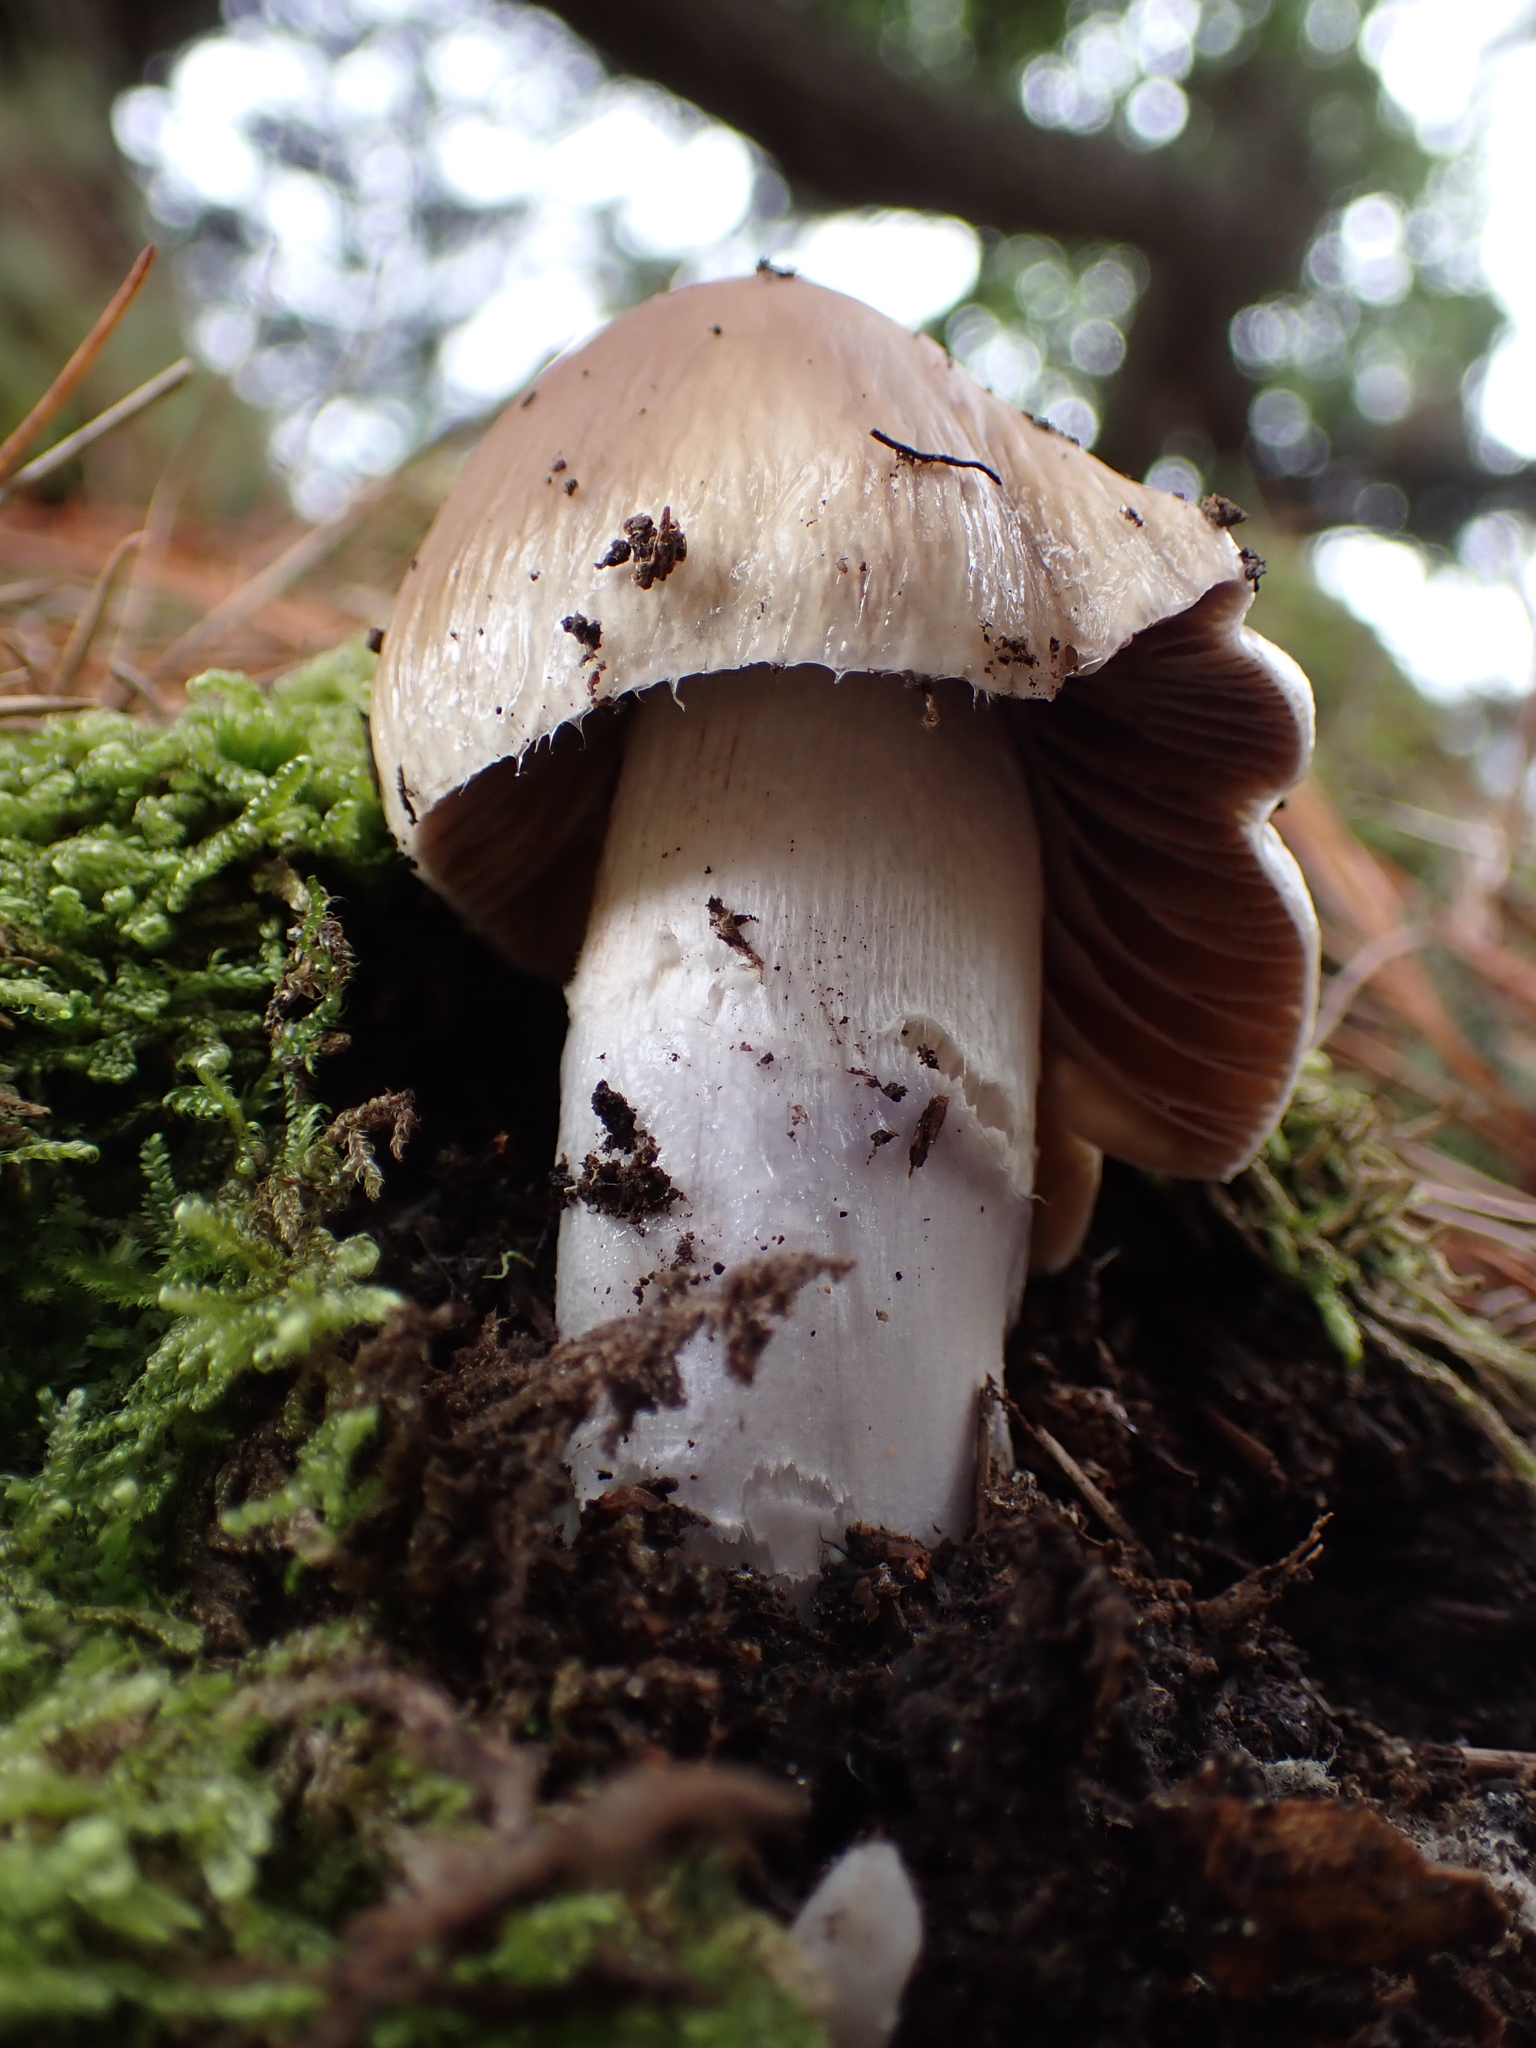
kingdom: Fungi
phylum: Basidiomycota
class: Agaricomycetes
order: Agaricales
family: Cortinariaceae
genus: Cortinarius
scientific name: Cortinarius livido-ochraceus
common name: Wrinkled webcap
